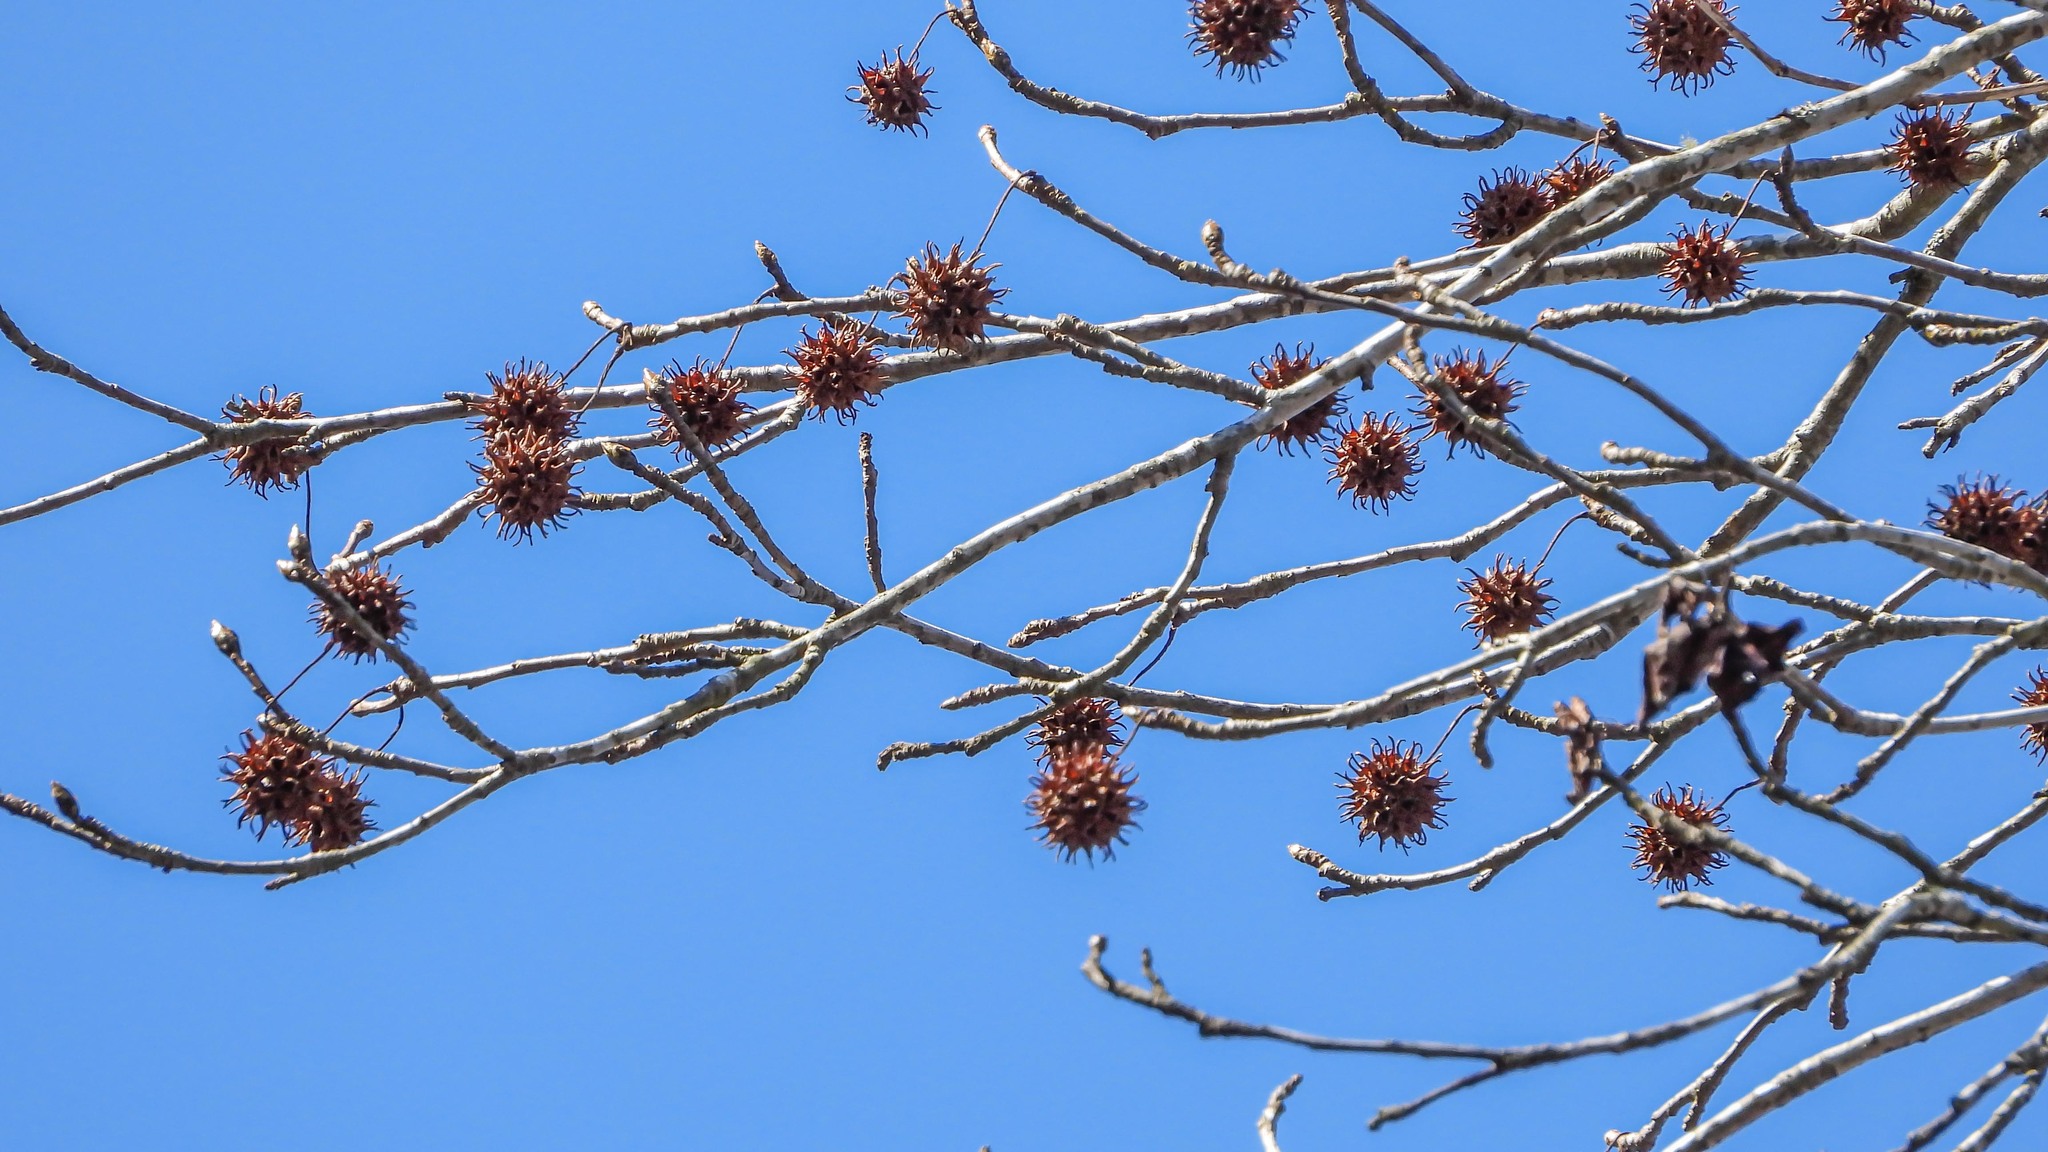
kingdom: Plantae
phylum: Tracheophyta
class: Magnoliopsida
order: Saxifragales
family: Altingiaceae
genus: Liquidambar
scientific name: Liquidambar styraciflua
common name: Sweet gum
